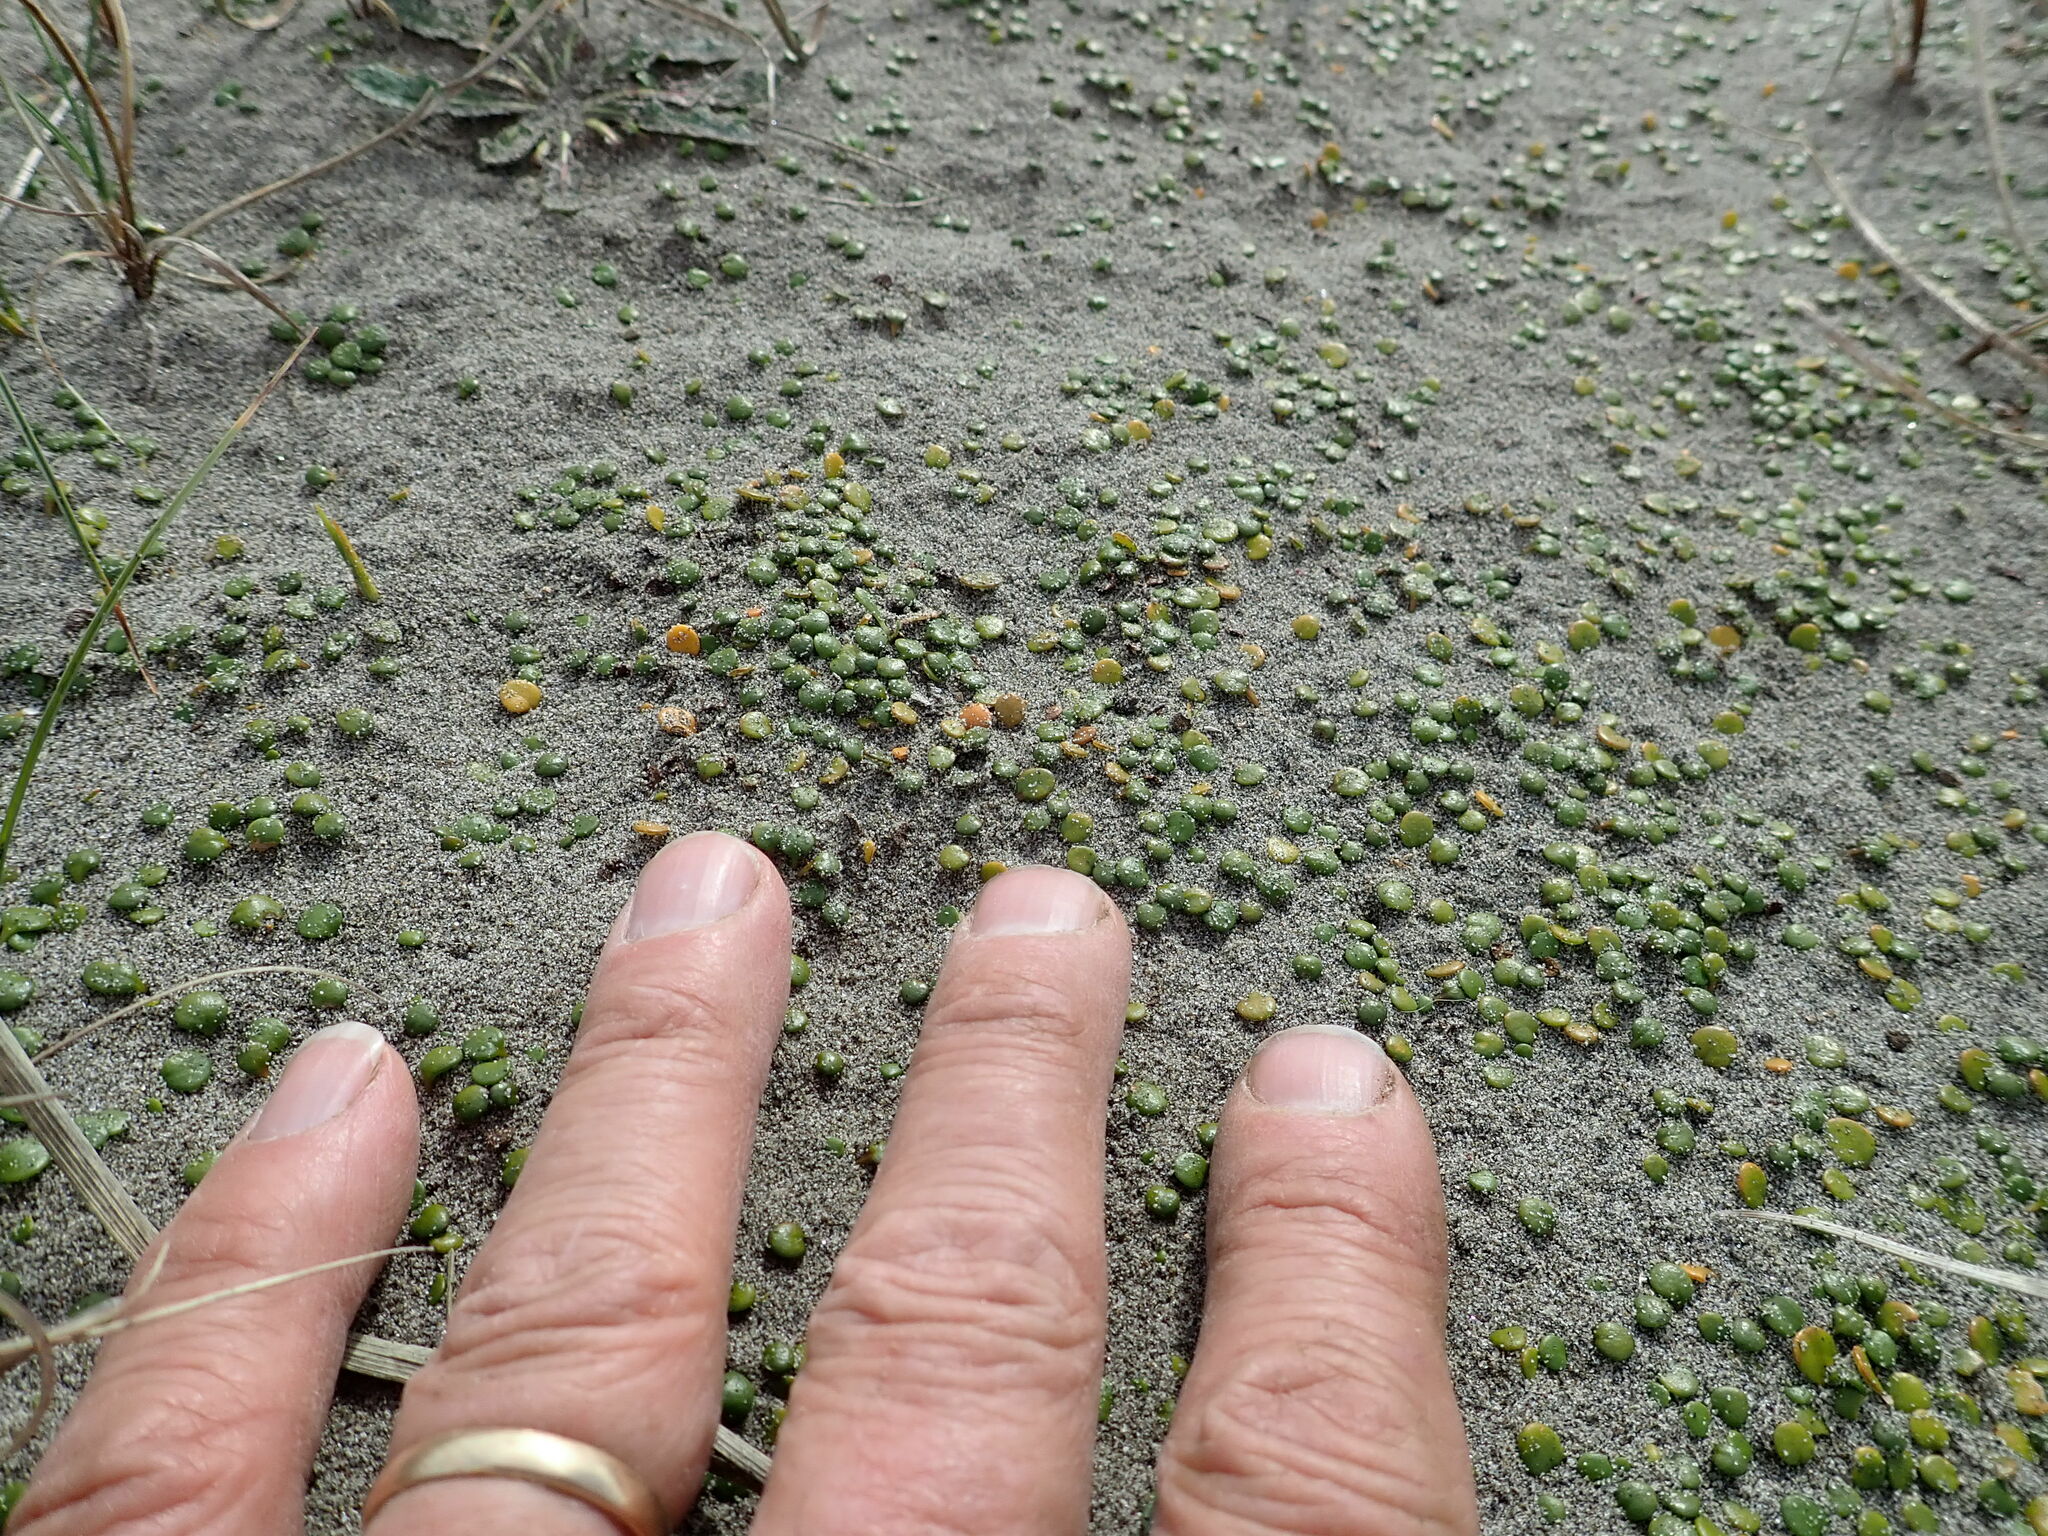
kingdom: Plantae
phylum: Tracheophyta
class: Magnoliopsida
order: Asterales
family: Goodeniaceae
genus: Goodenia
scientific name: Goodenia heenanii
